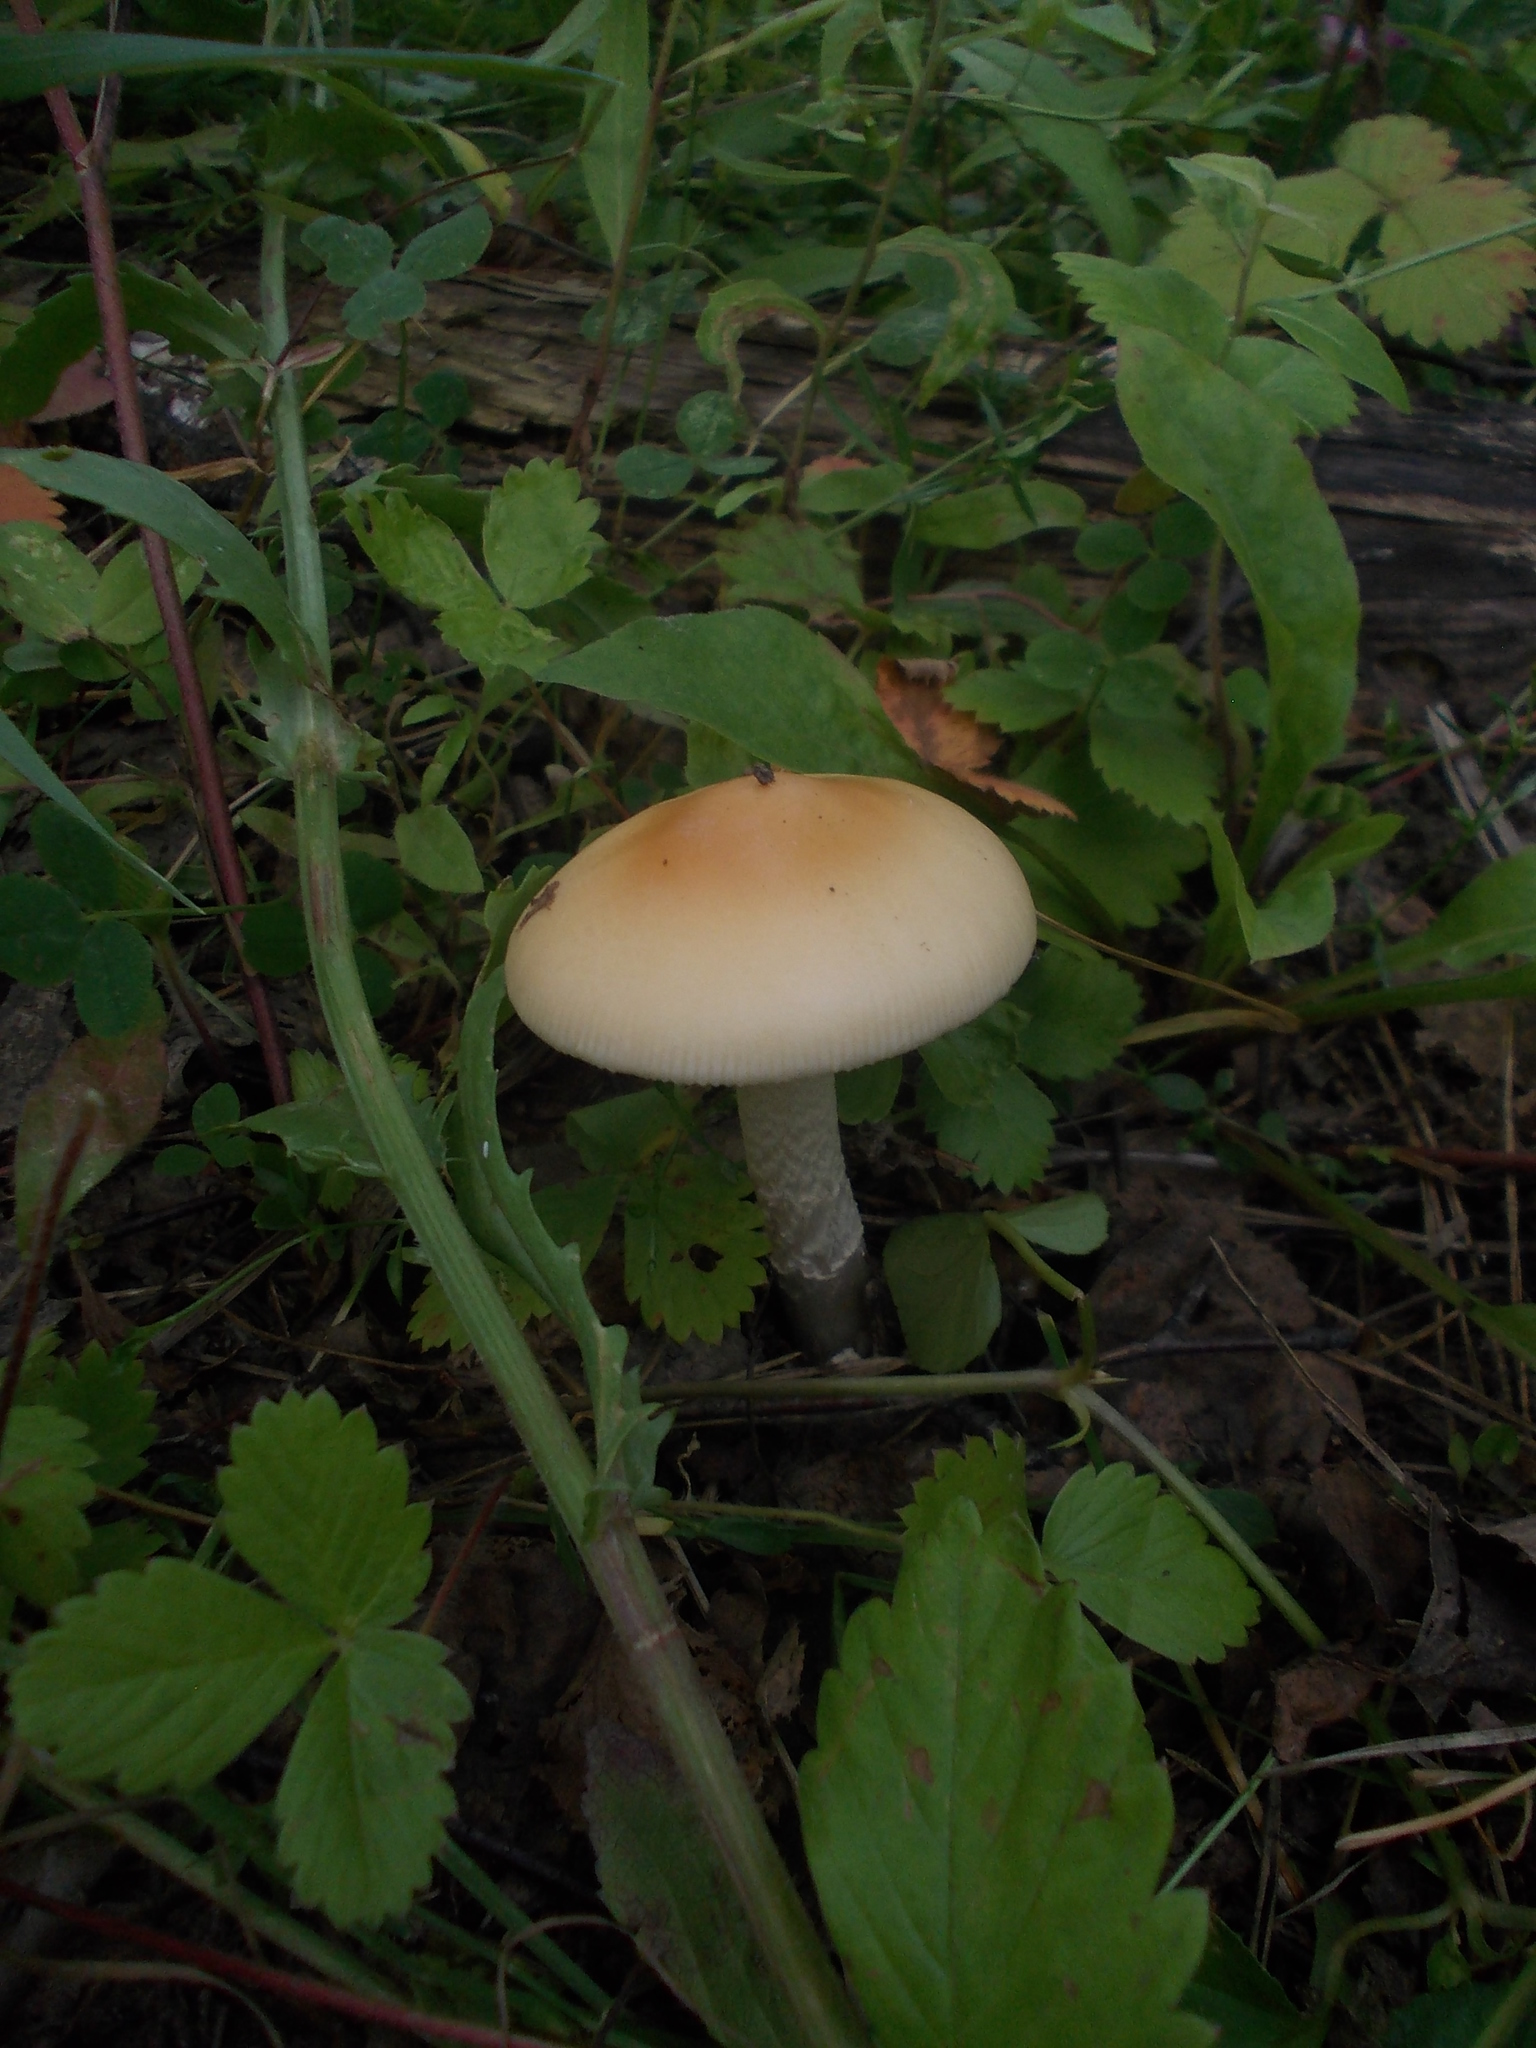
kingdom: Fungi
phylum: Basidiomycota
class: Agaricomycetes
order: Agaricales
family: Amanitaceae
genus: Amanita
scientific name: Amanita contui
